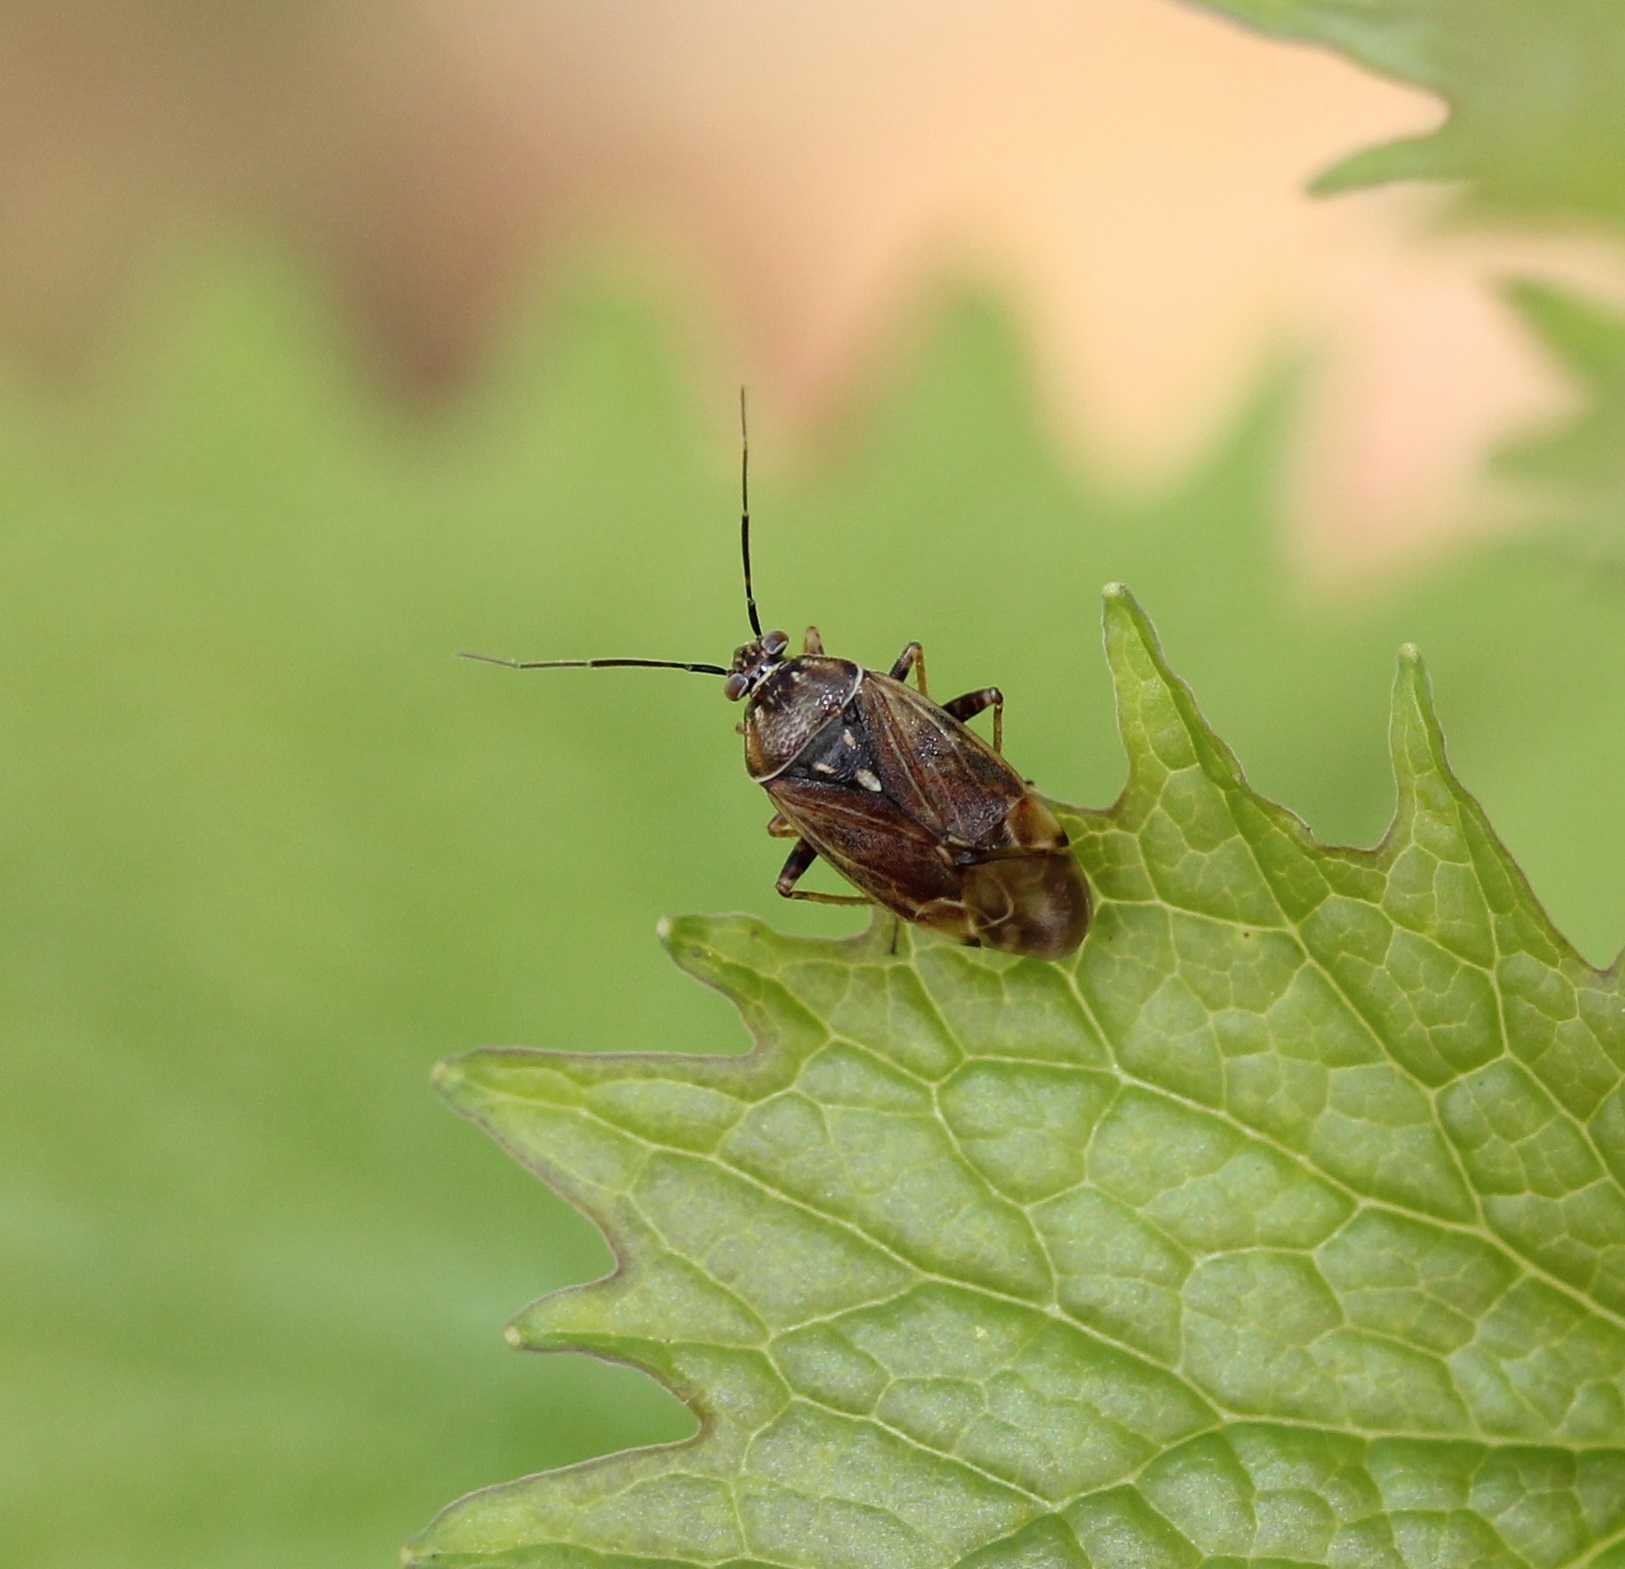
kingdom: Animalia
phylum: Arthropoda
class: Insecta
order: Hemiptera
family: Miridae
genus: Lygus
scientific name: Lygus lineolaris
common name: North american tarnished plant bug
